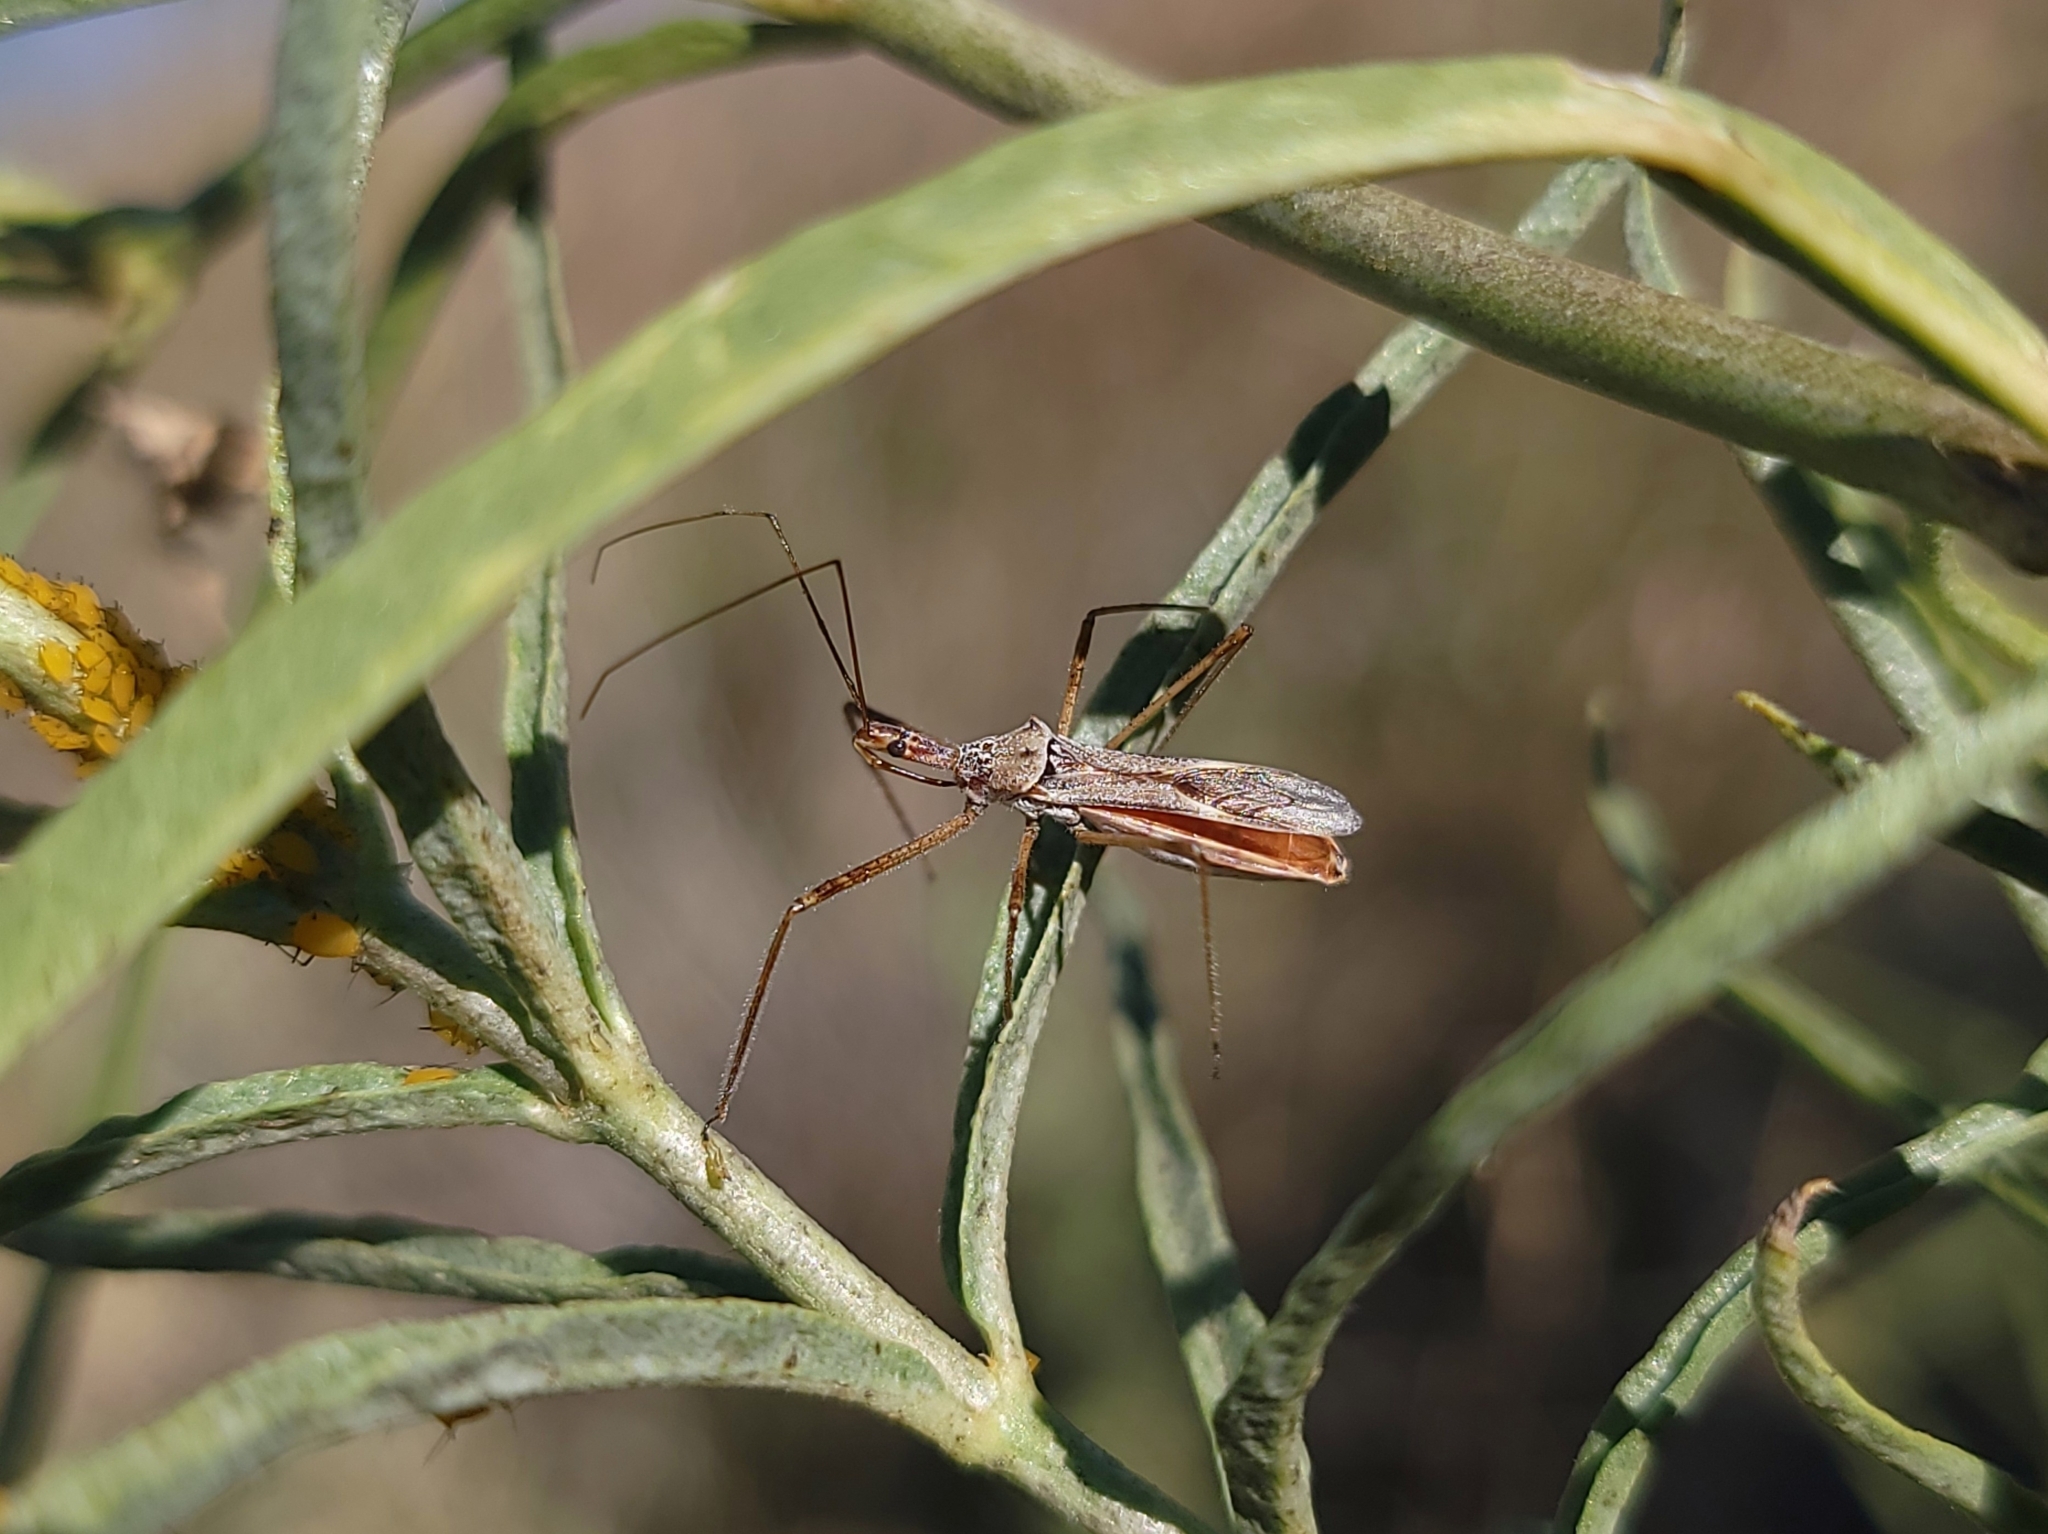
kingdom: Animalia
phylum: Arthropoda
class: Insecta
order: Hemiptera
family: Reduviidae
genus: Zelus
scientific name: Zelus tetracanthus
